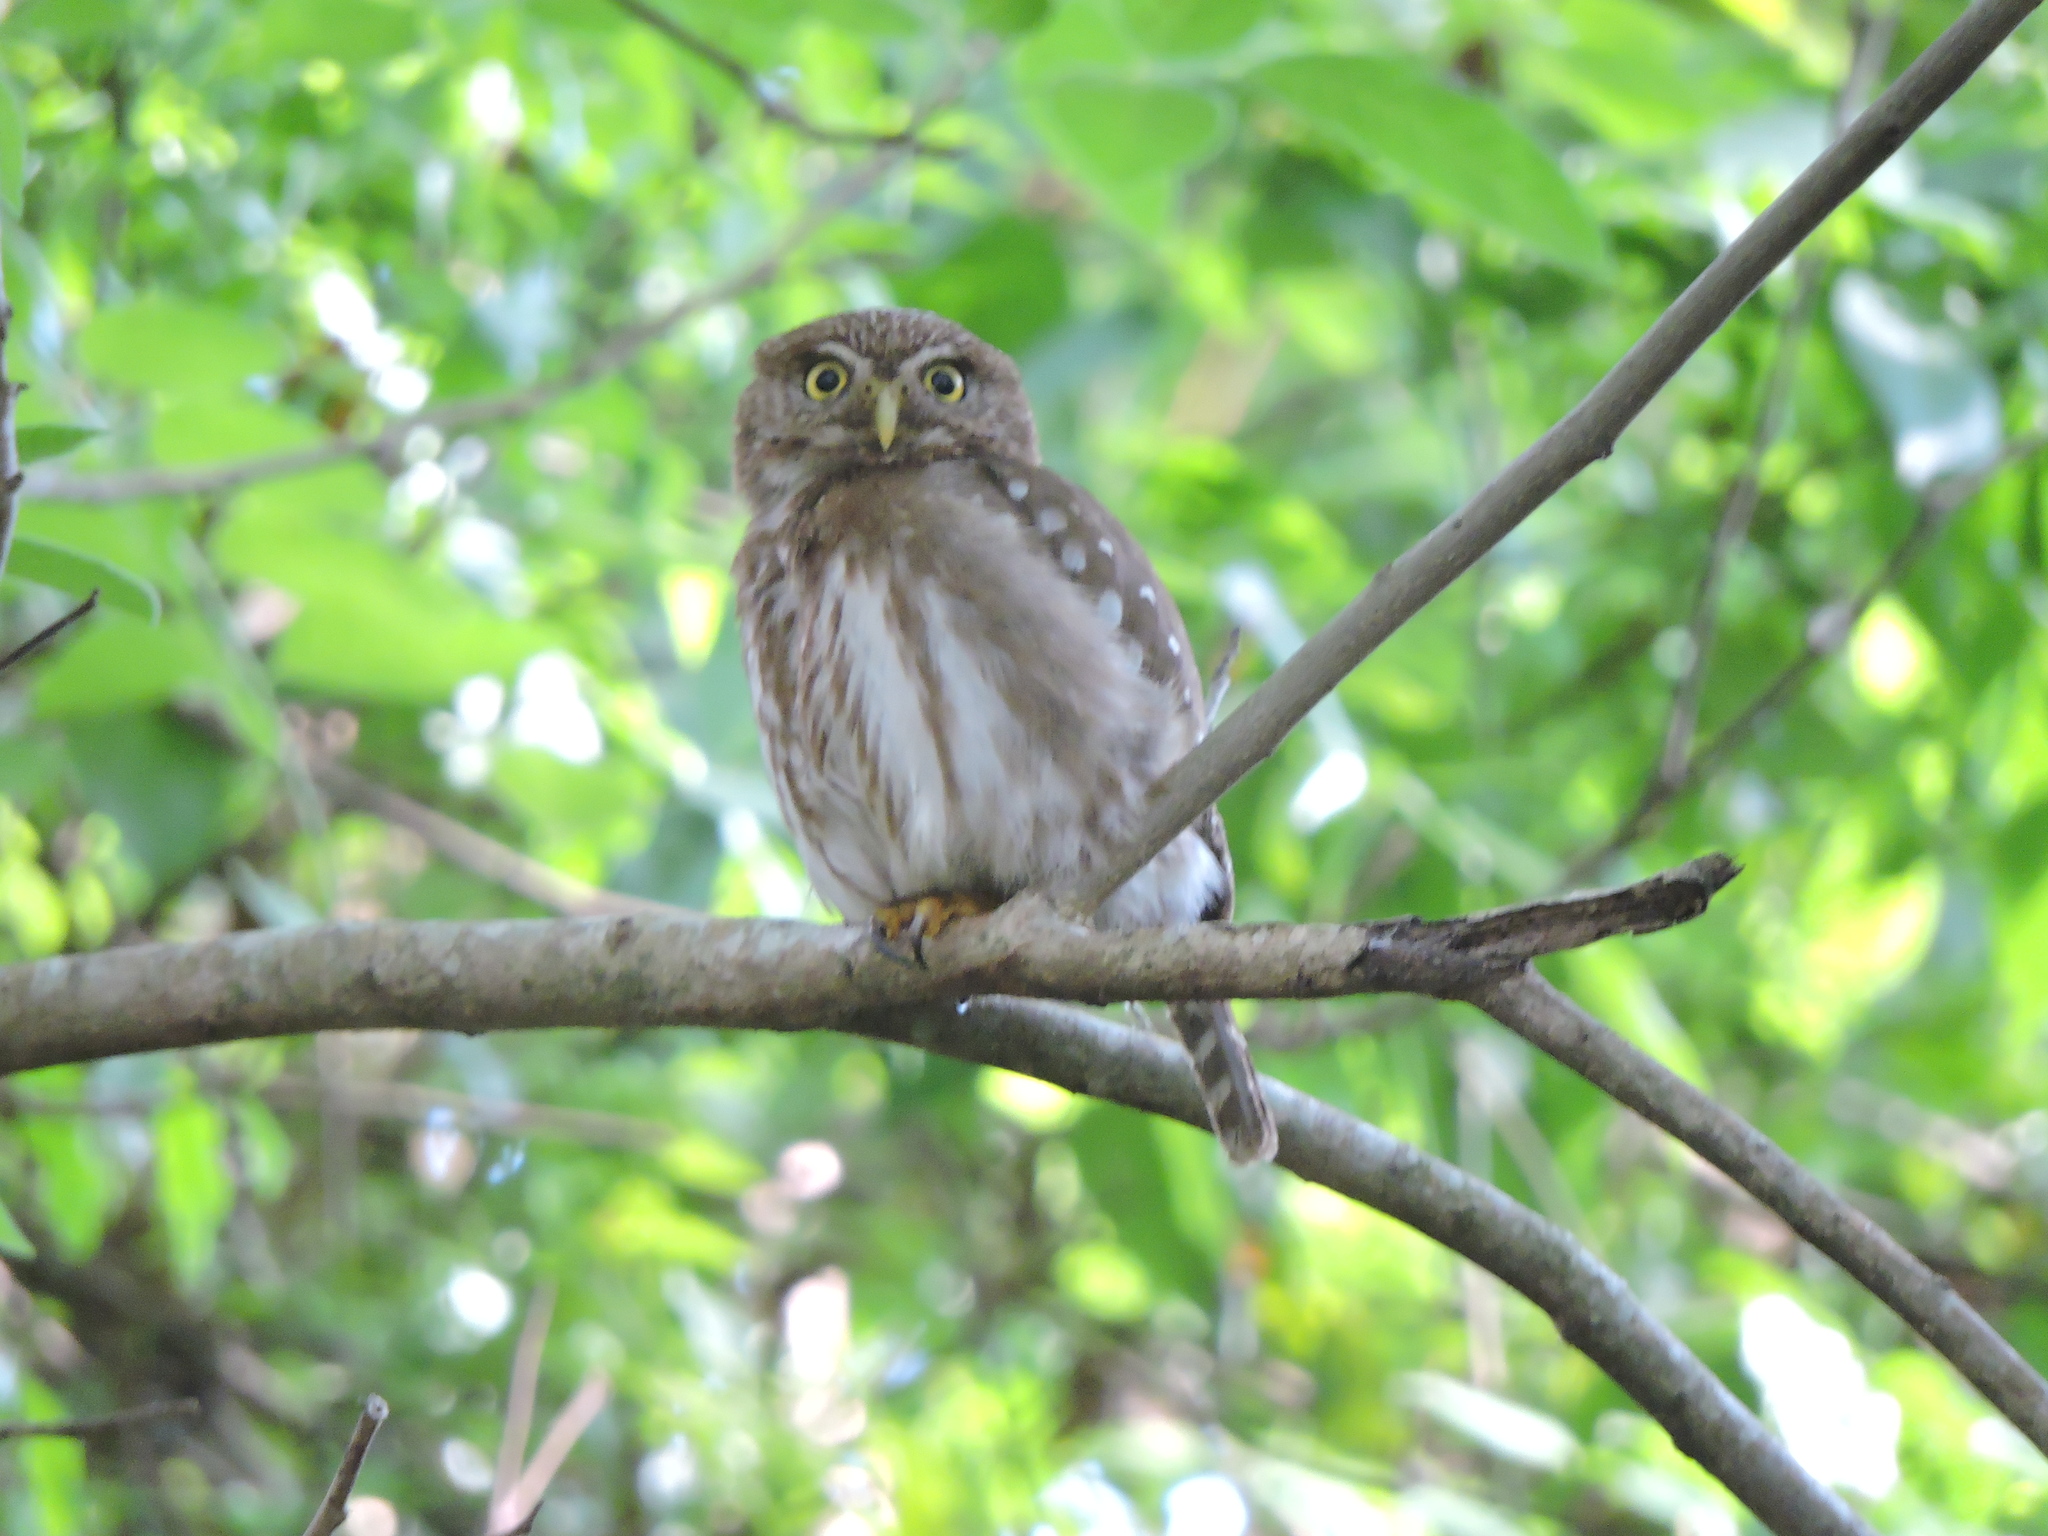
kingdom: Animalia
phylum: Chordata
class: Aves
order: Strigiformes
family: Strigidae
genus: Glaucidium
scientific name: Glaucidium brasilianum
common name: Ferruginous pygmy-owl
